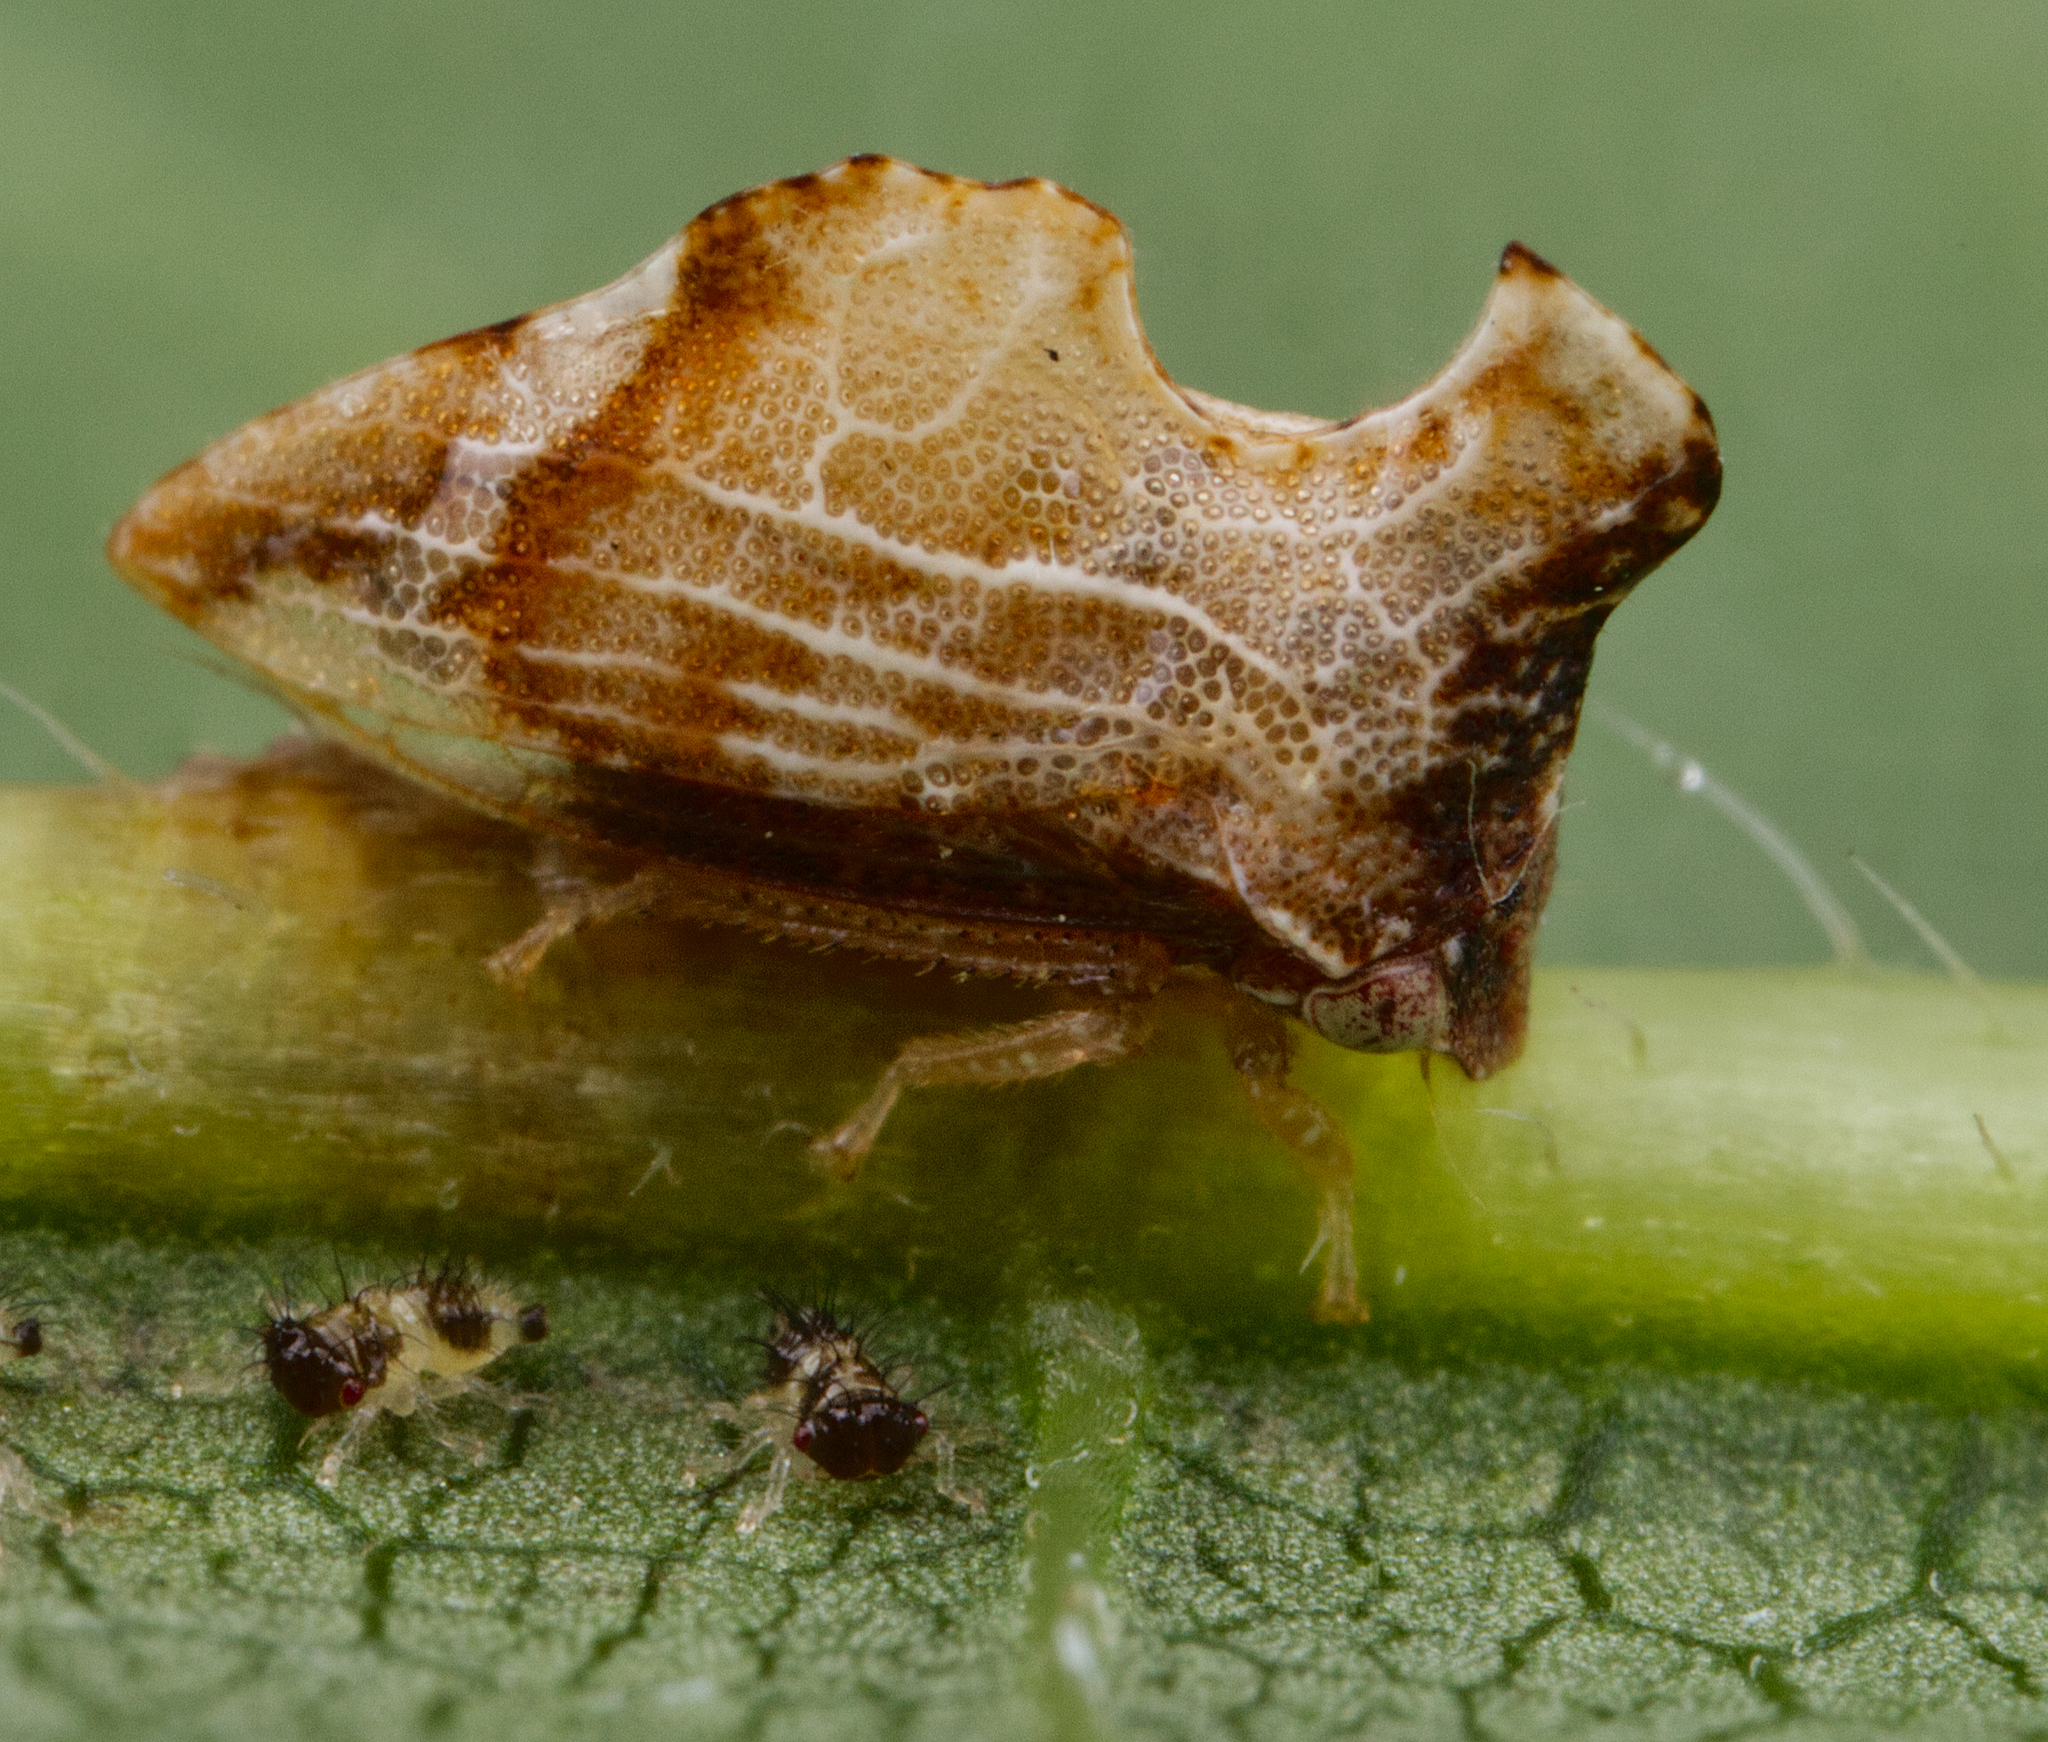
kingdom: Animalia
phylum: Arthropoda
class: Insecta
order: Hemiptera
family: Membracidae
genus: Entylia
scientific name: Entylia carinata
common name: Keeled treehopper
